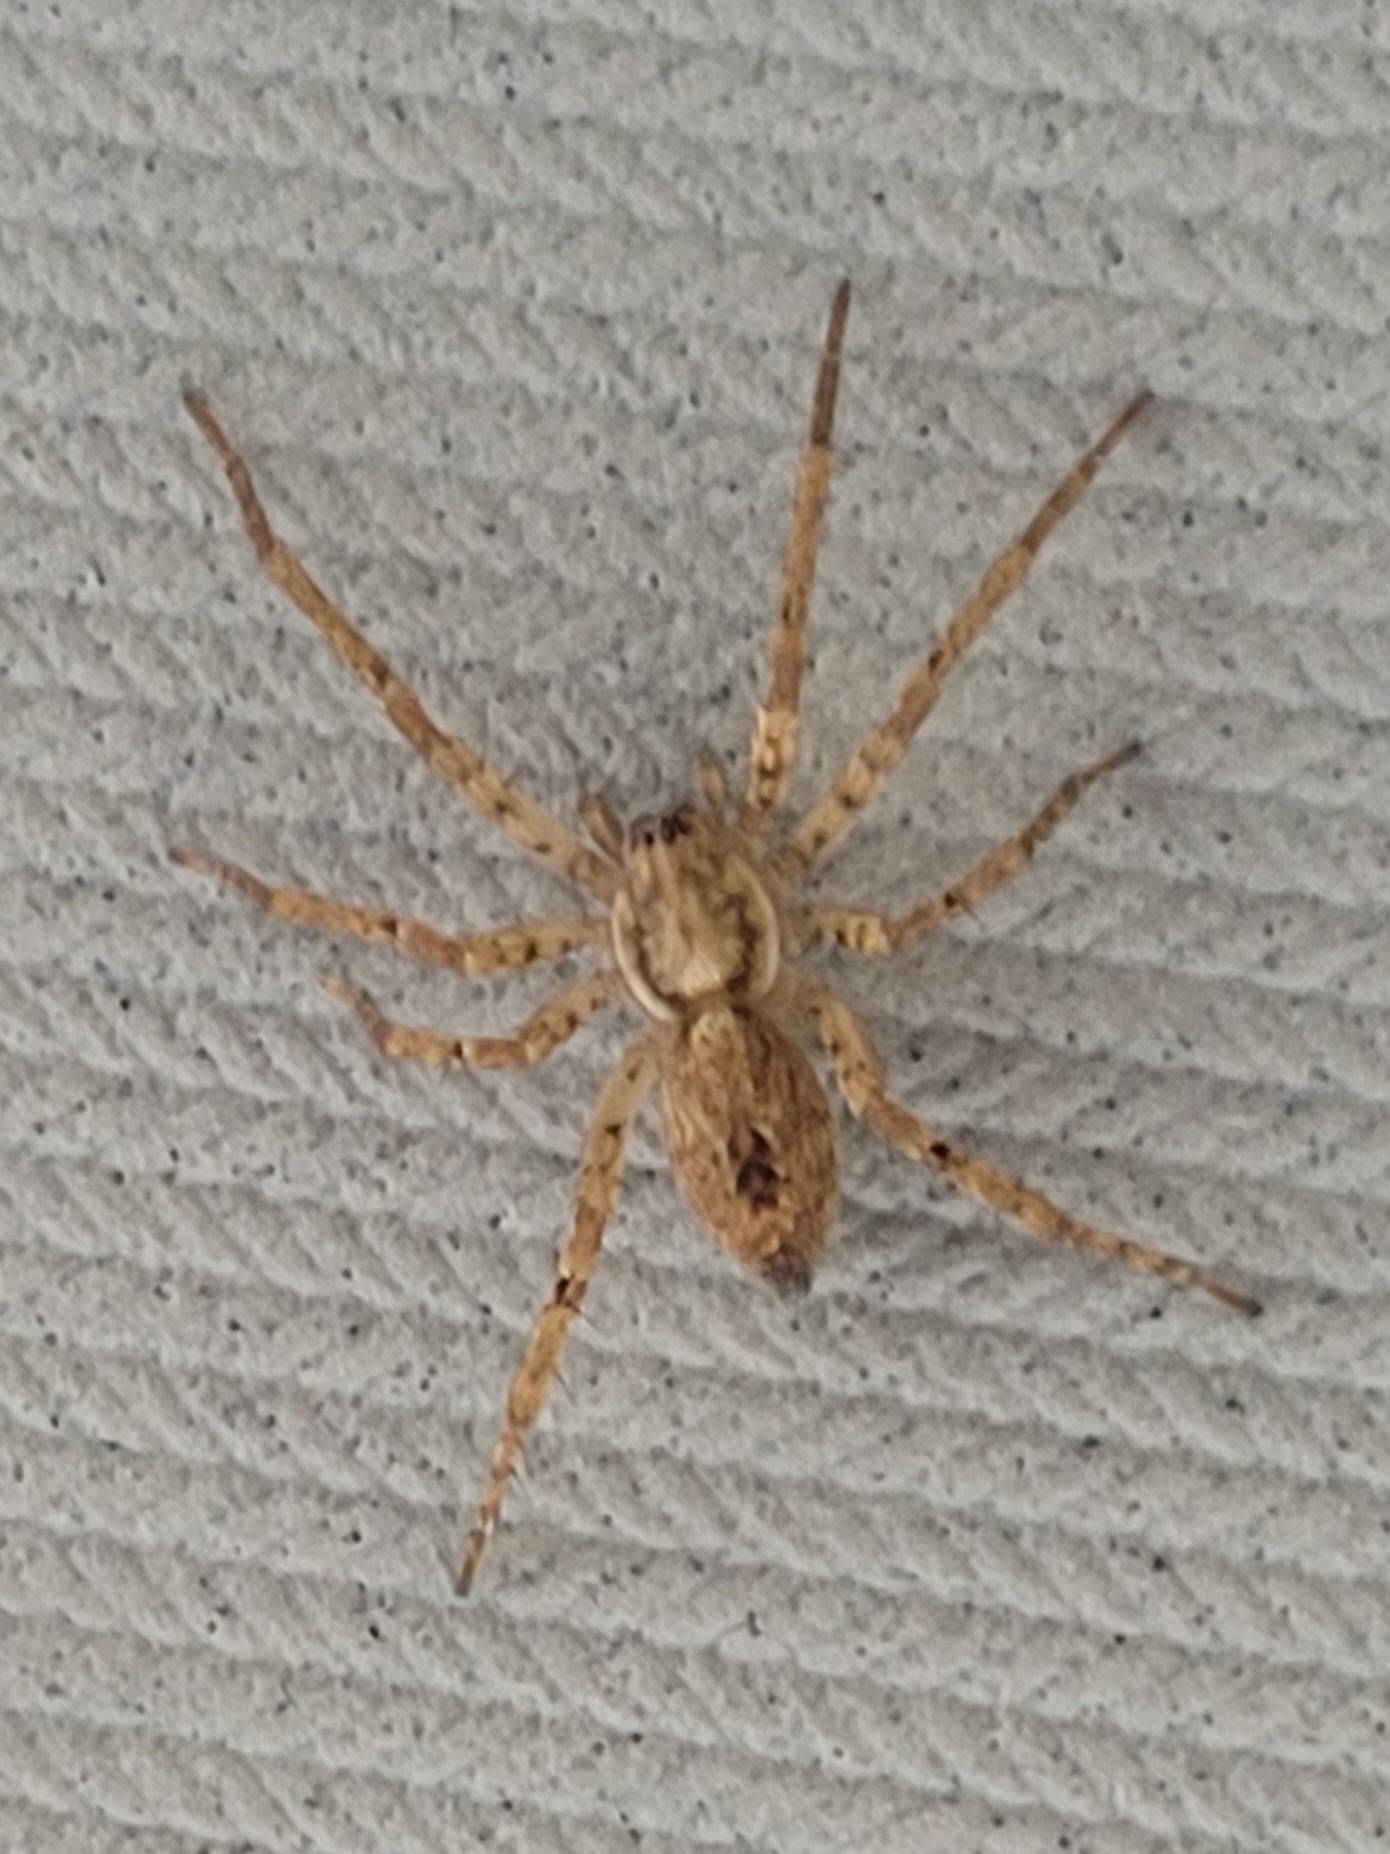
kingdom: Animalia
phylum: Arthropoda
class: Arachnida
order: Araneae
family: Anyphaenidae
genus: Anyphaena
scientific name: Anyphaena accentuata
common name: Buzzing spider
